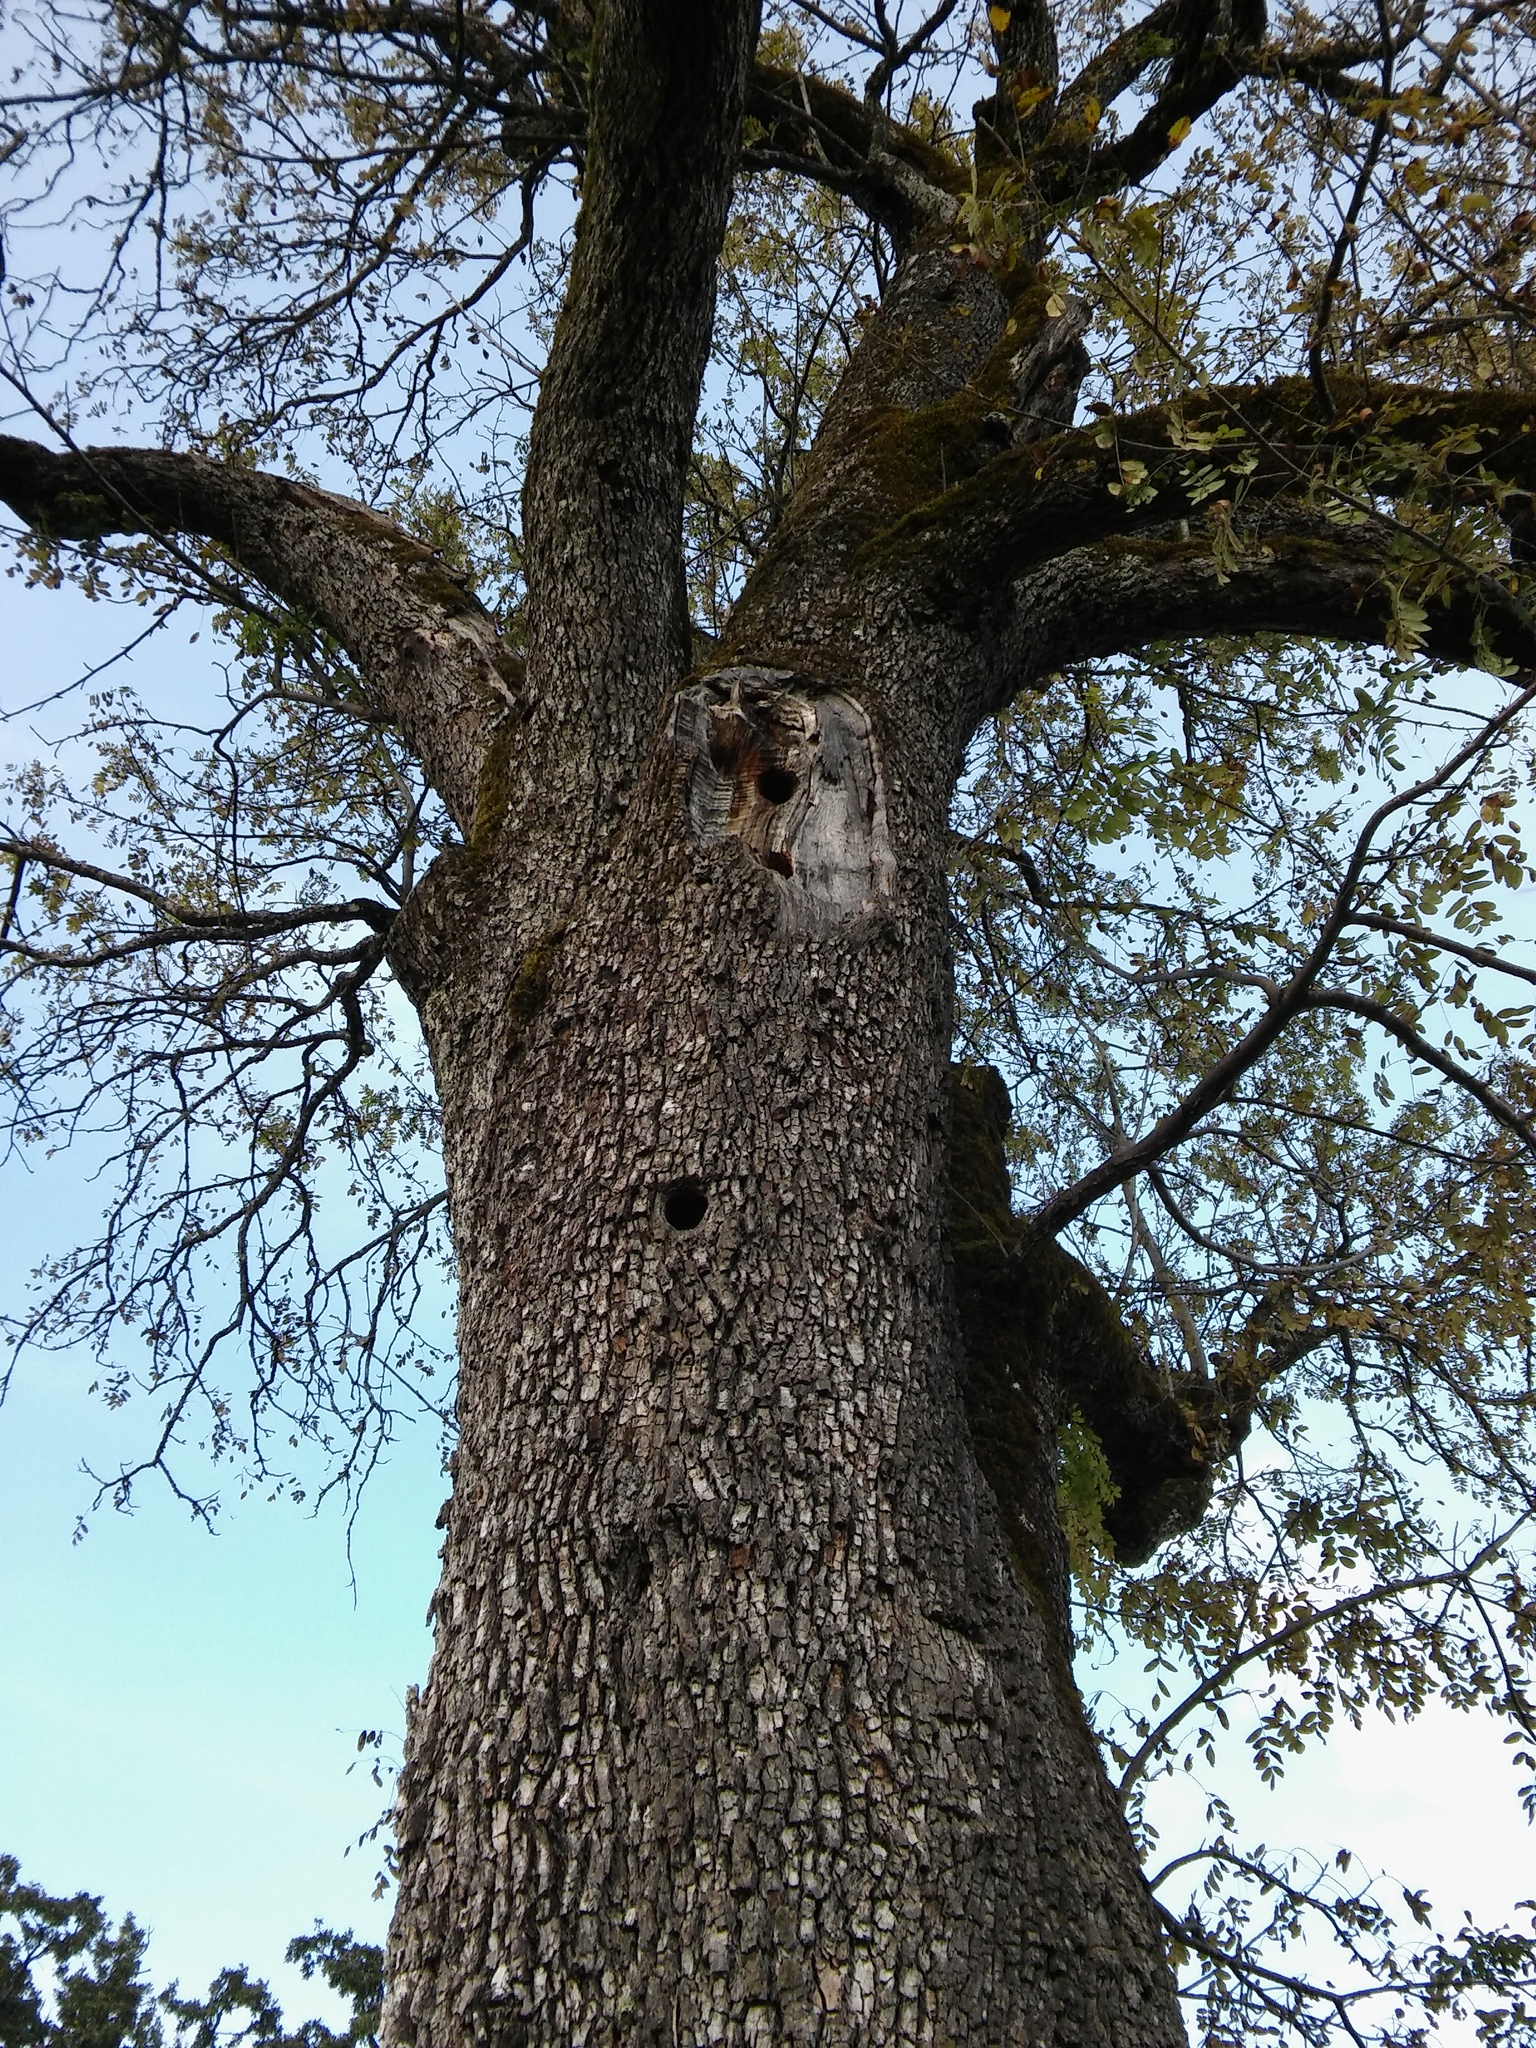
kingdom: Plantae
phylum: Tracheophyta
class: Magnoliopsida
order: Rosales
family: Rosaceae
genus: Cormus
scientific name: Cormus domestica
